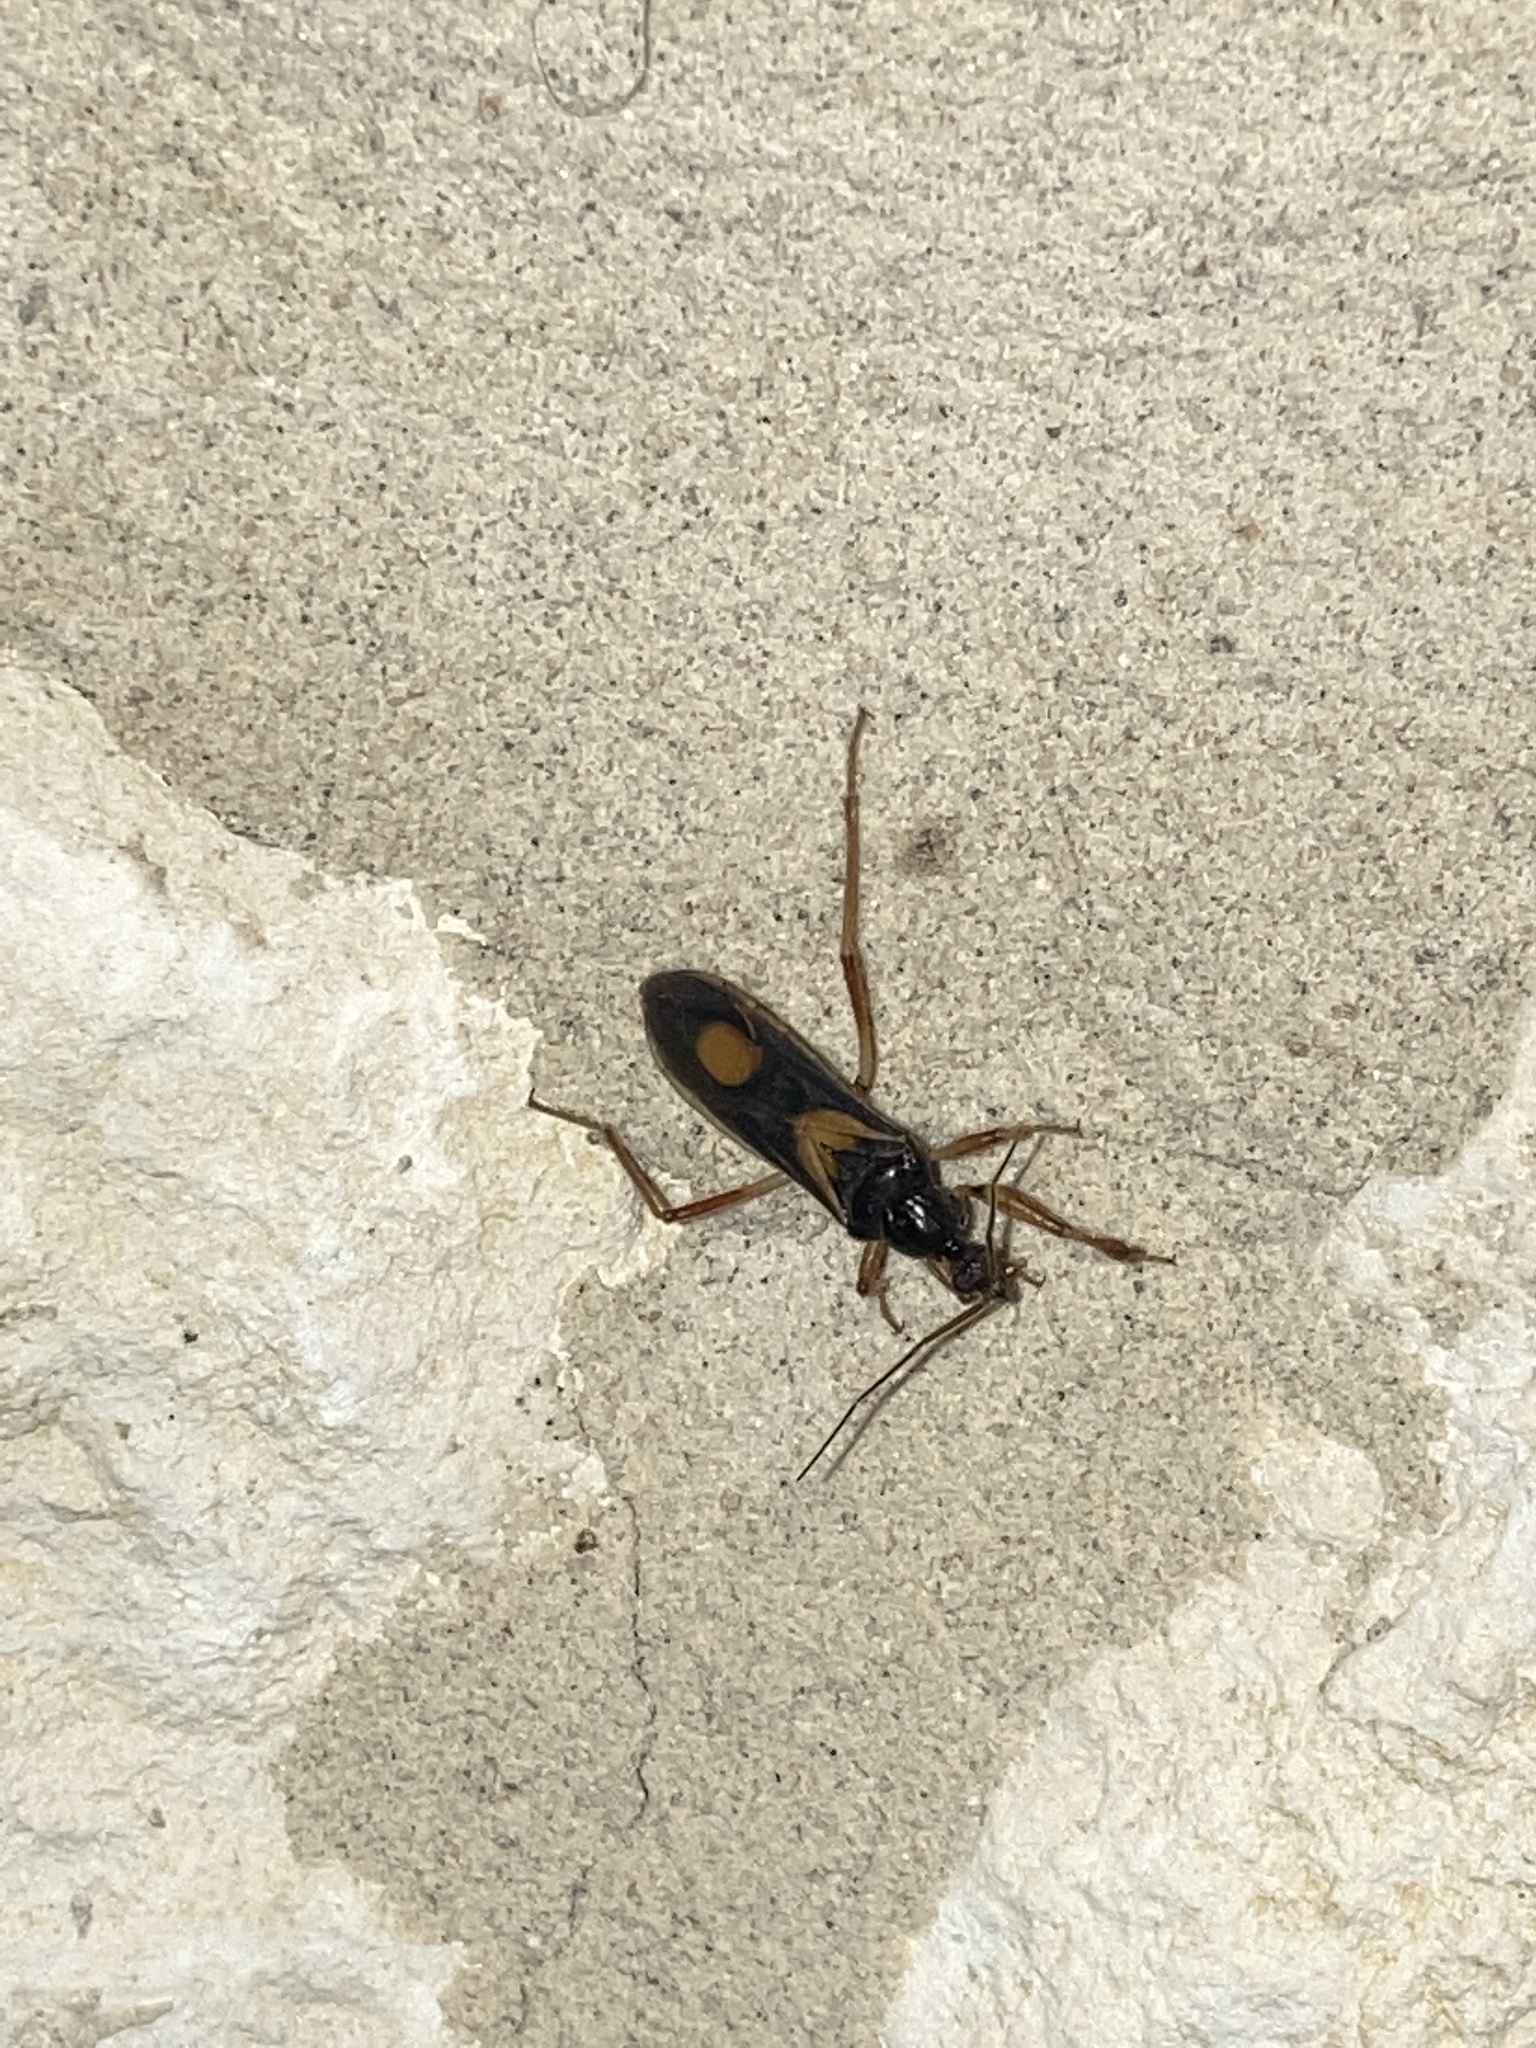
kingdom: Animalia
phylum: Arthropoda
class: Insecta
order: Hemiptera
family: Reduviidae
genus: Rasahus
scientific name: Rasahus hamatus
